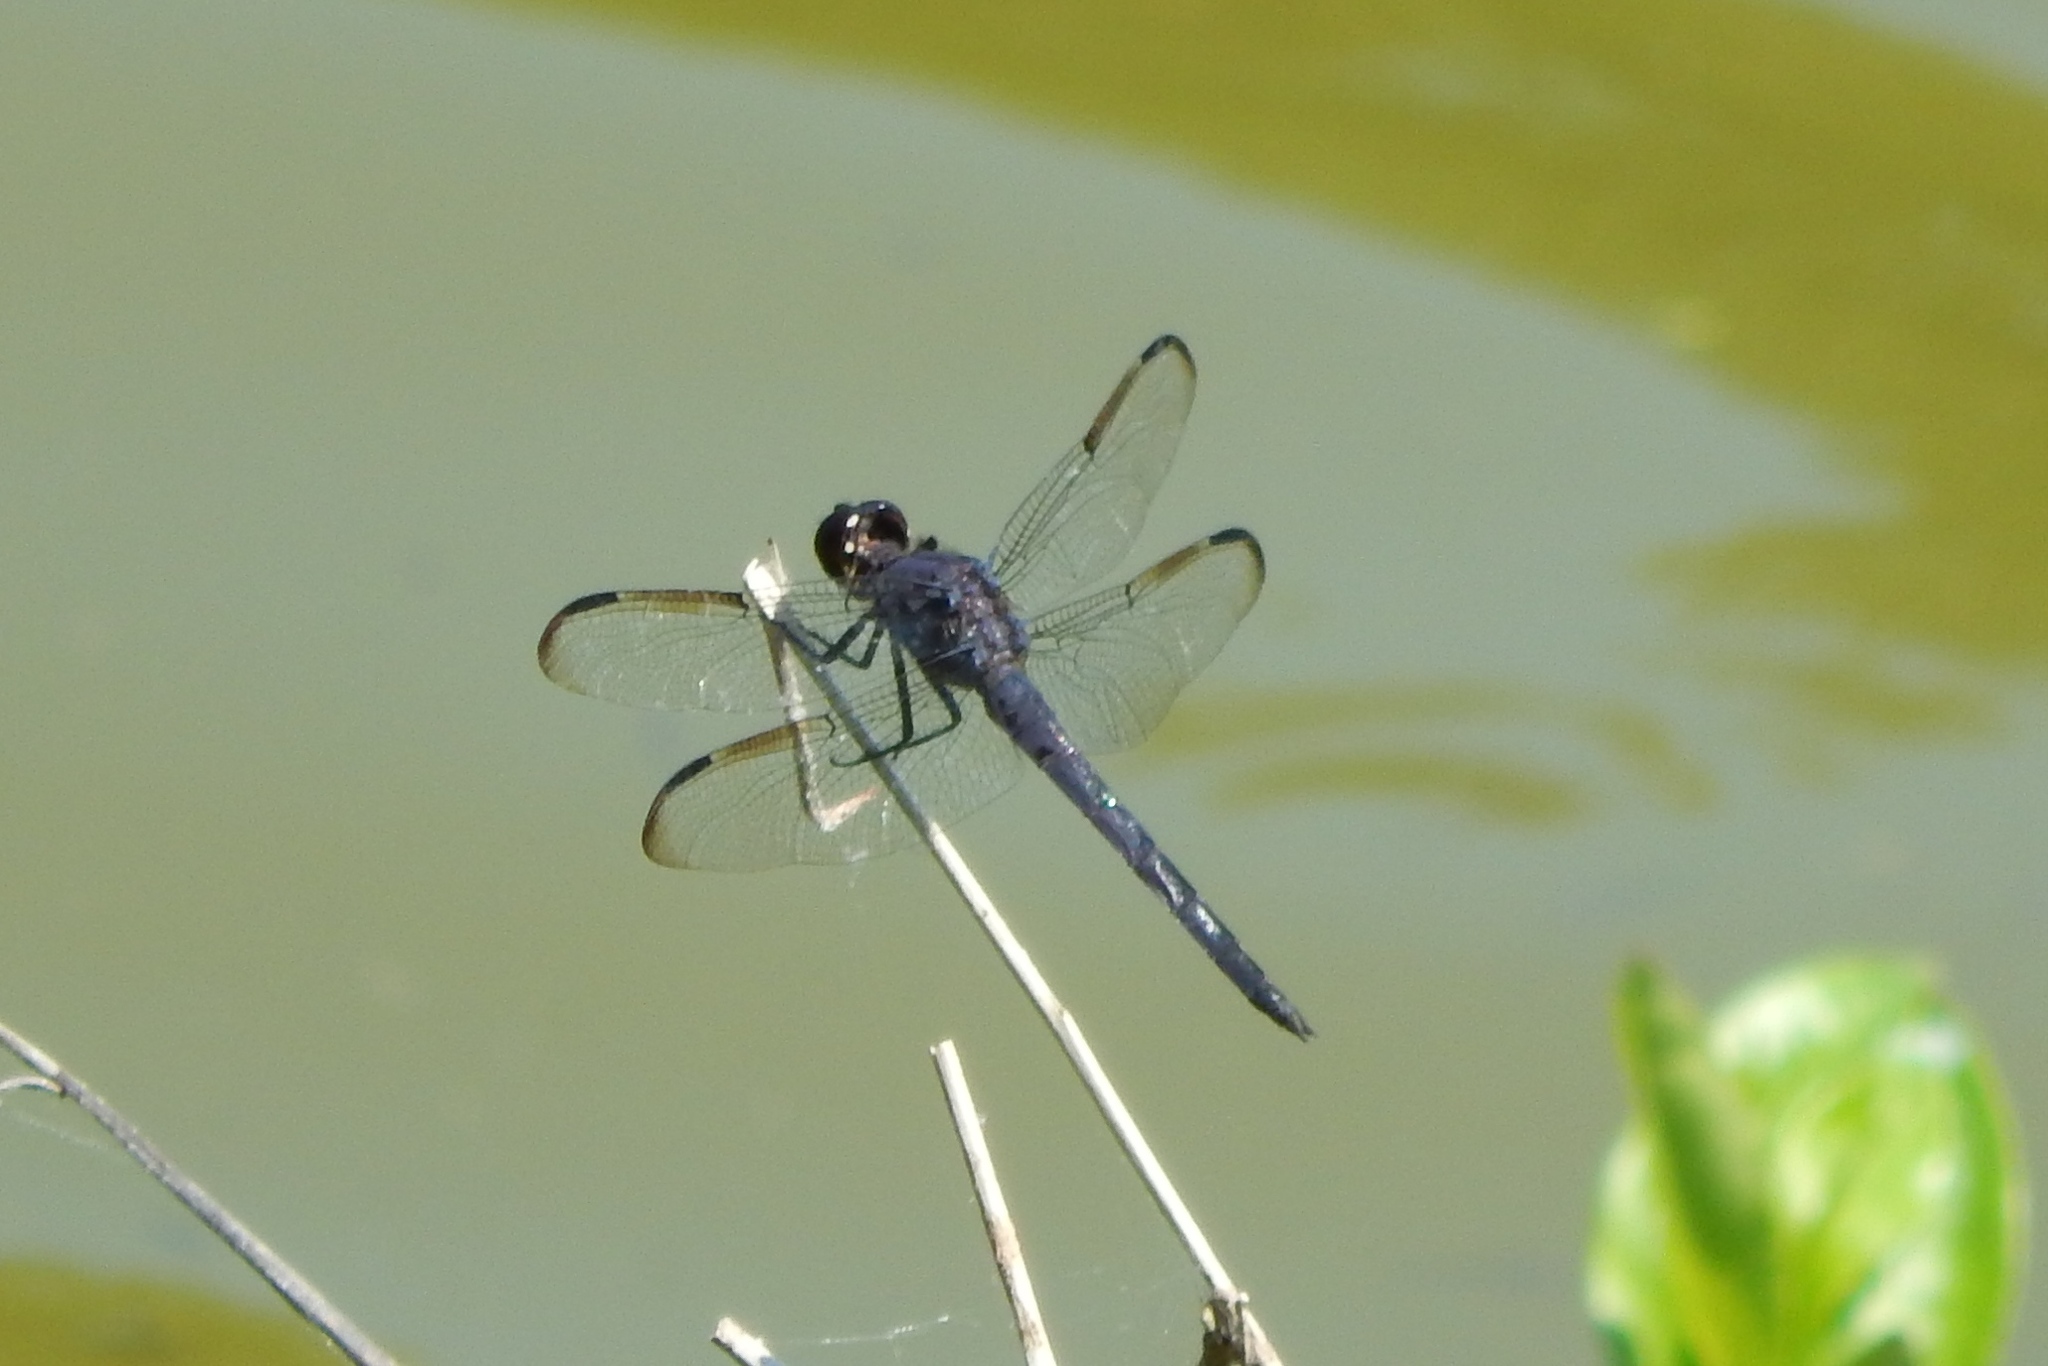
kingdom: Animalia
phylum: Arthropoda
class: Insecta
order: Odonata
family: Libellulidae
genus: Libellula
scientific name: Libellula incesta
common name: Slaty skimmer
